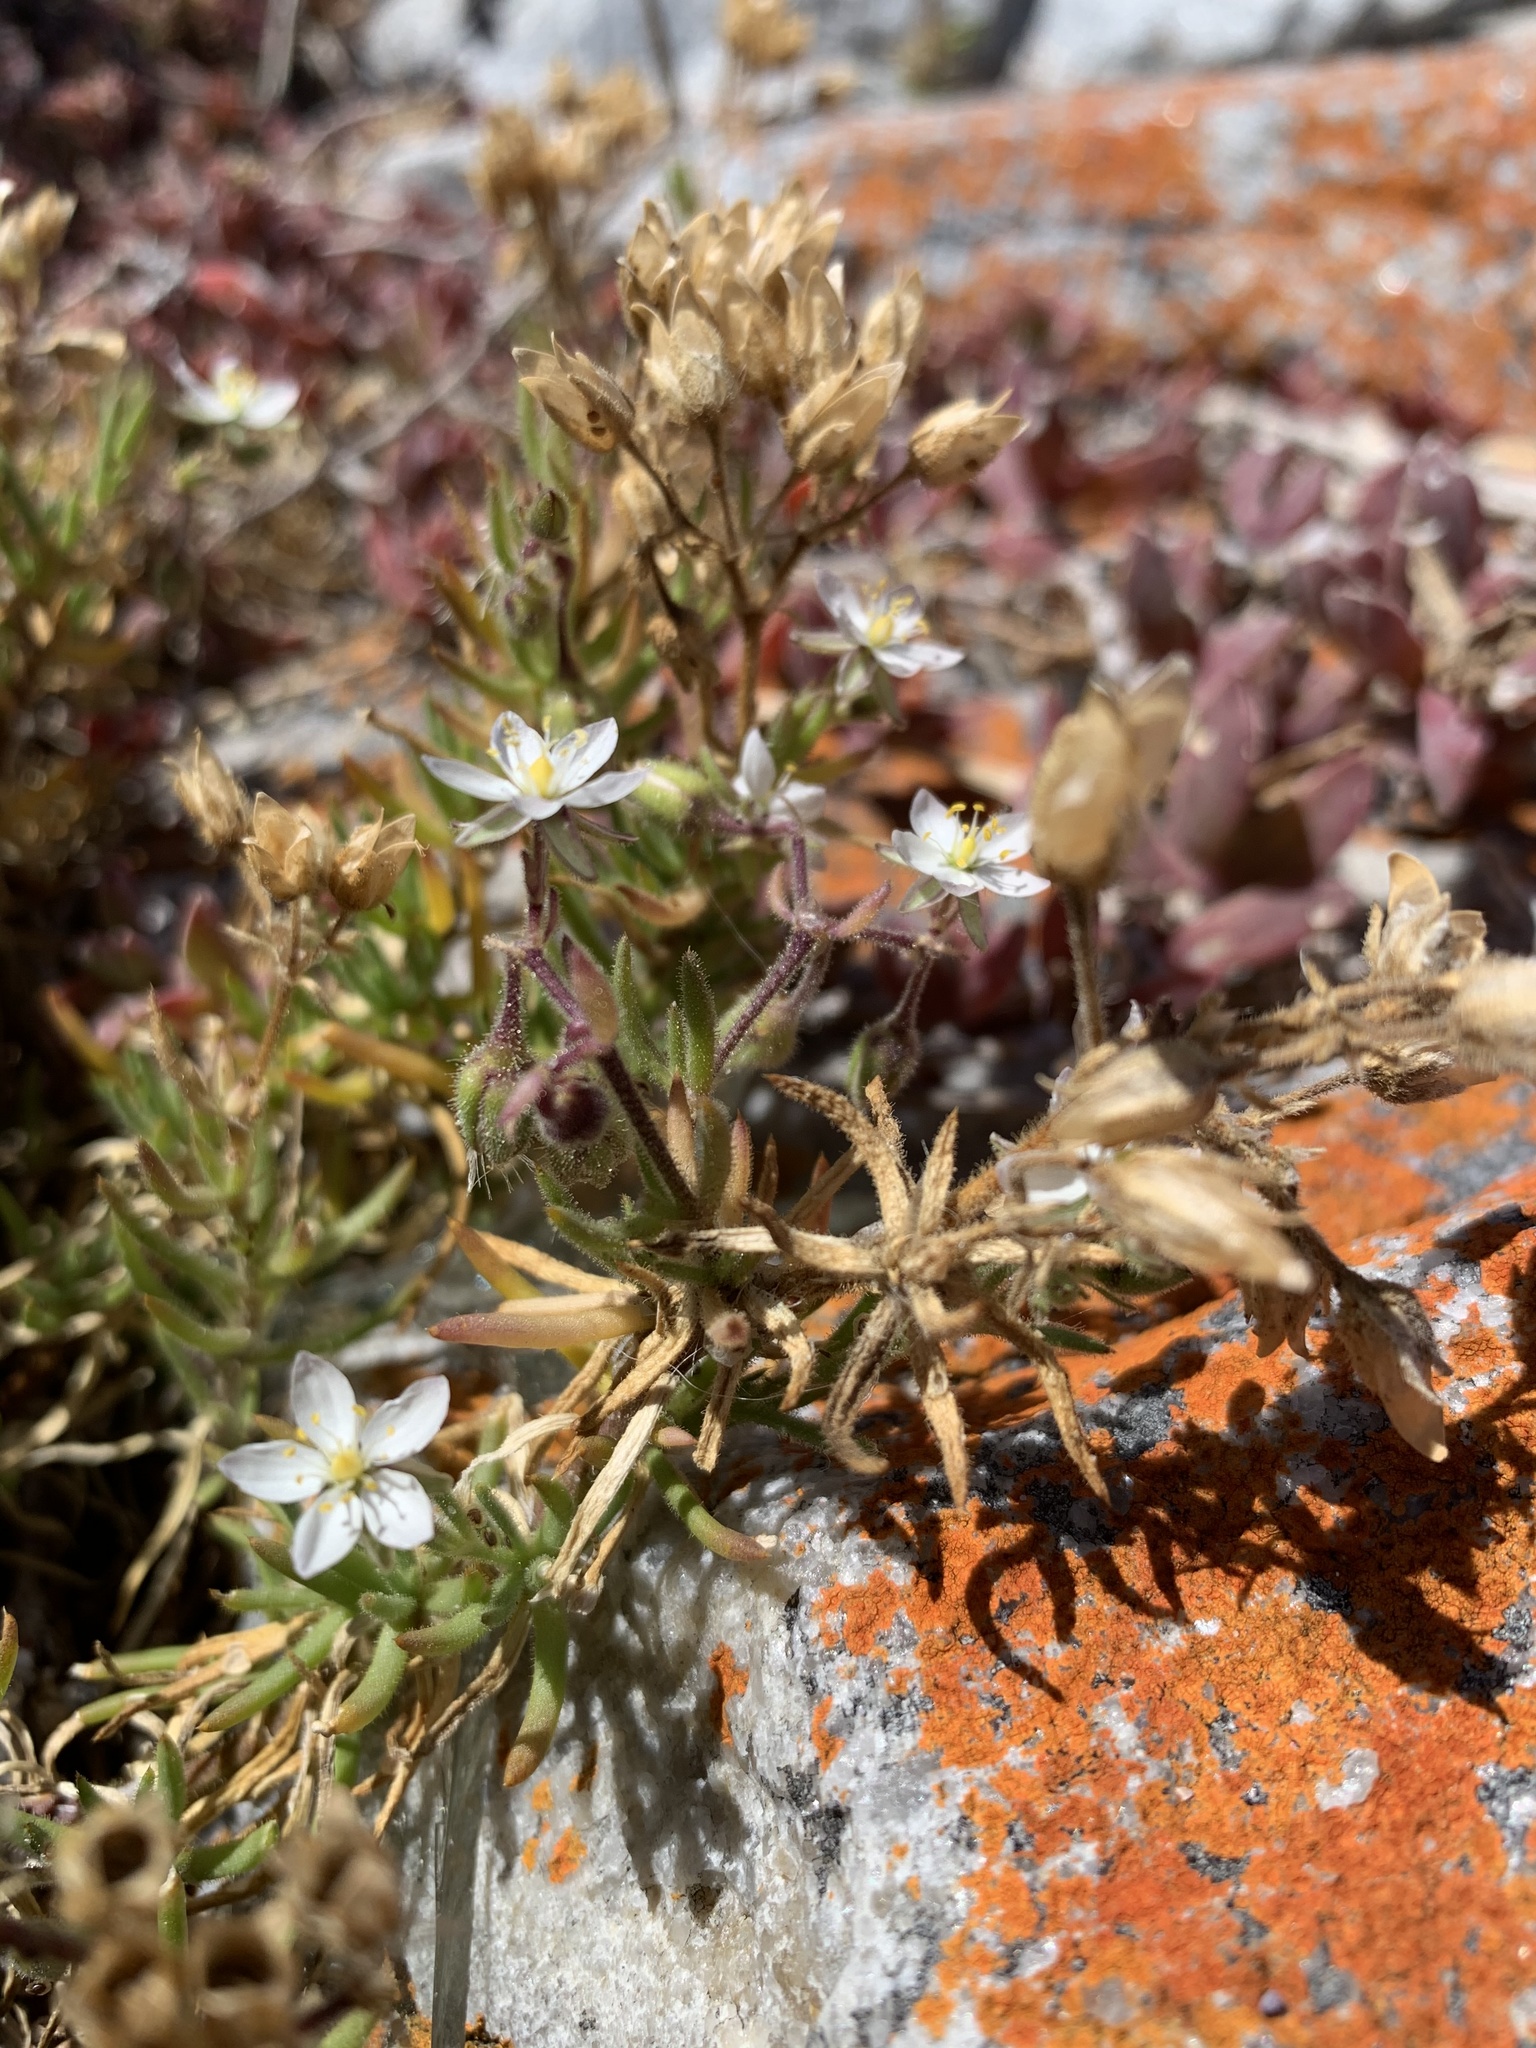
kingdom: Plantae
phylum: Tracheophyta
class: Magnoliopsida
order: Caryophyllales
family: Caryophyllaceae
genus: Spergularia
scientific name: Spergularia media
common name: Greater sea-spurrey
